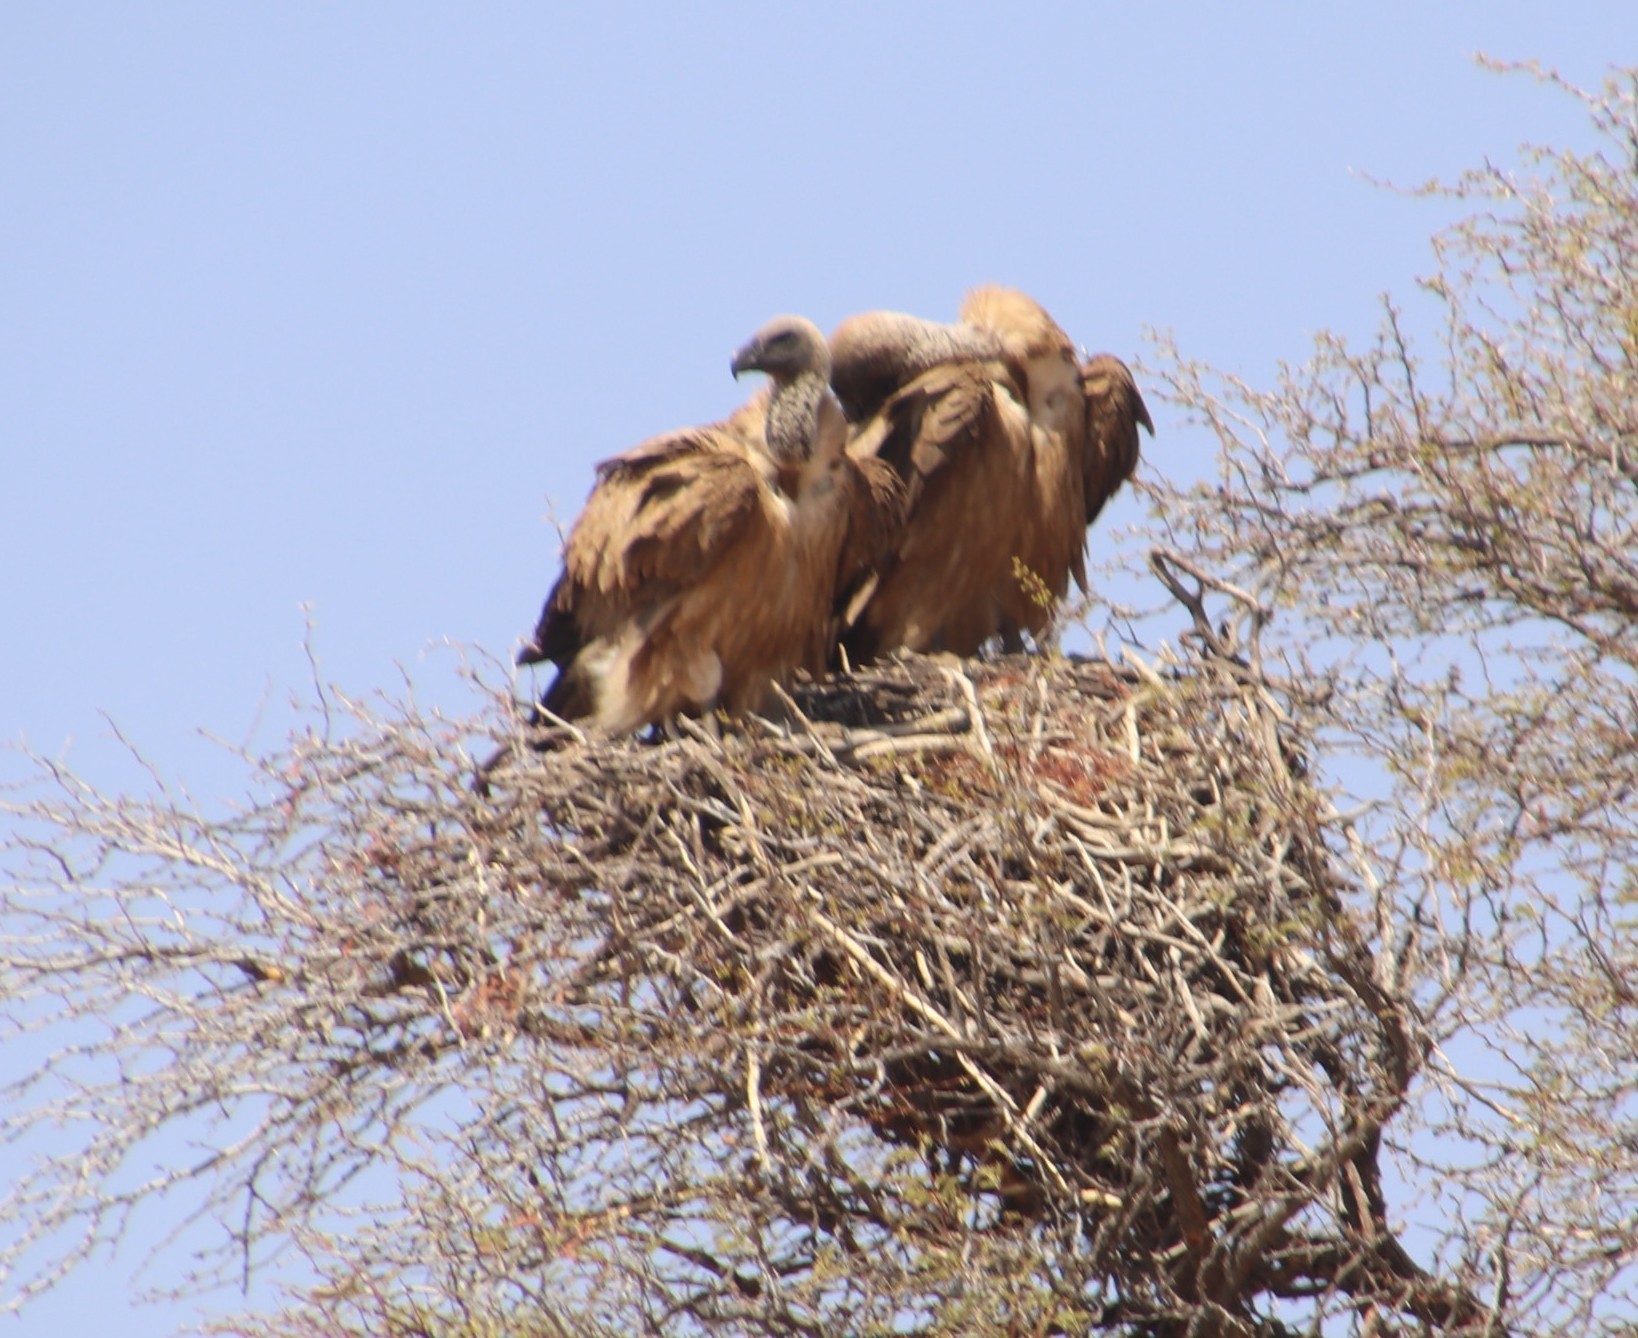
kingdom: Animalia
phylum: Chordata
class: Aves
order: Accipitriformes
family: Accipitridae
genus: Gyps
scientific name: Gyps africanus
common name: White-backed vulture
